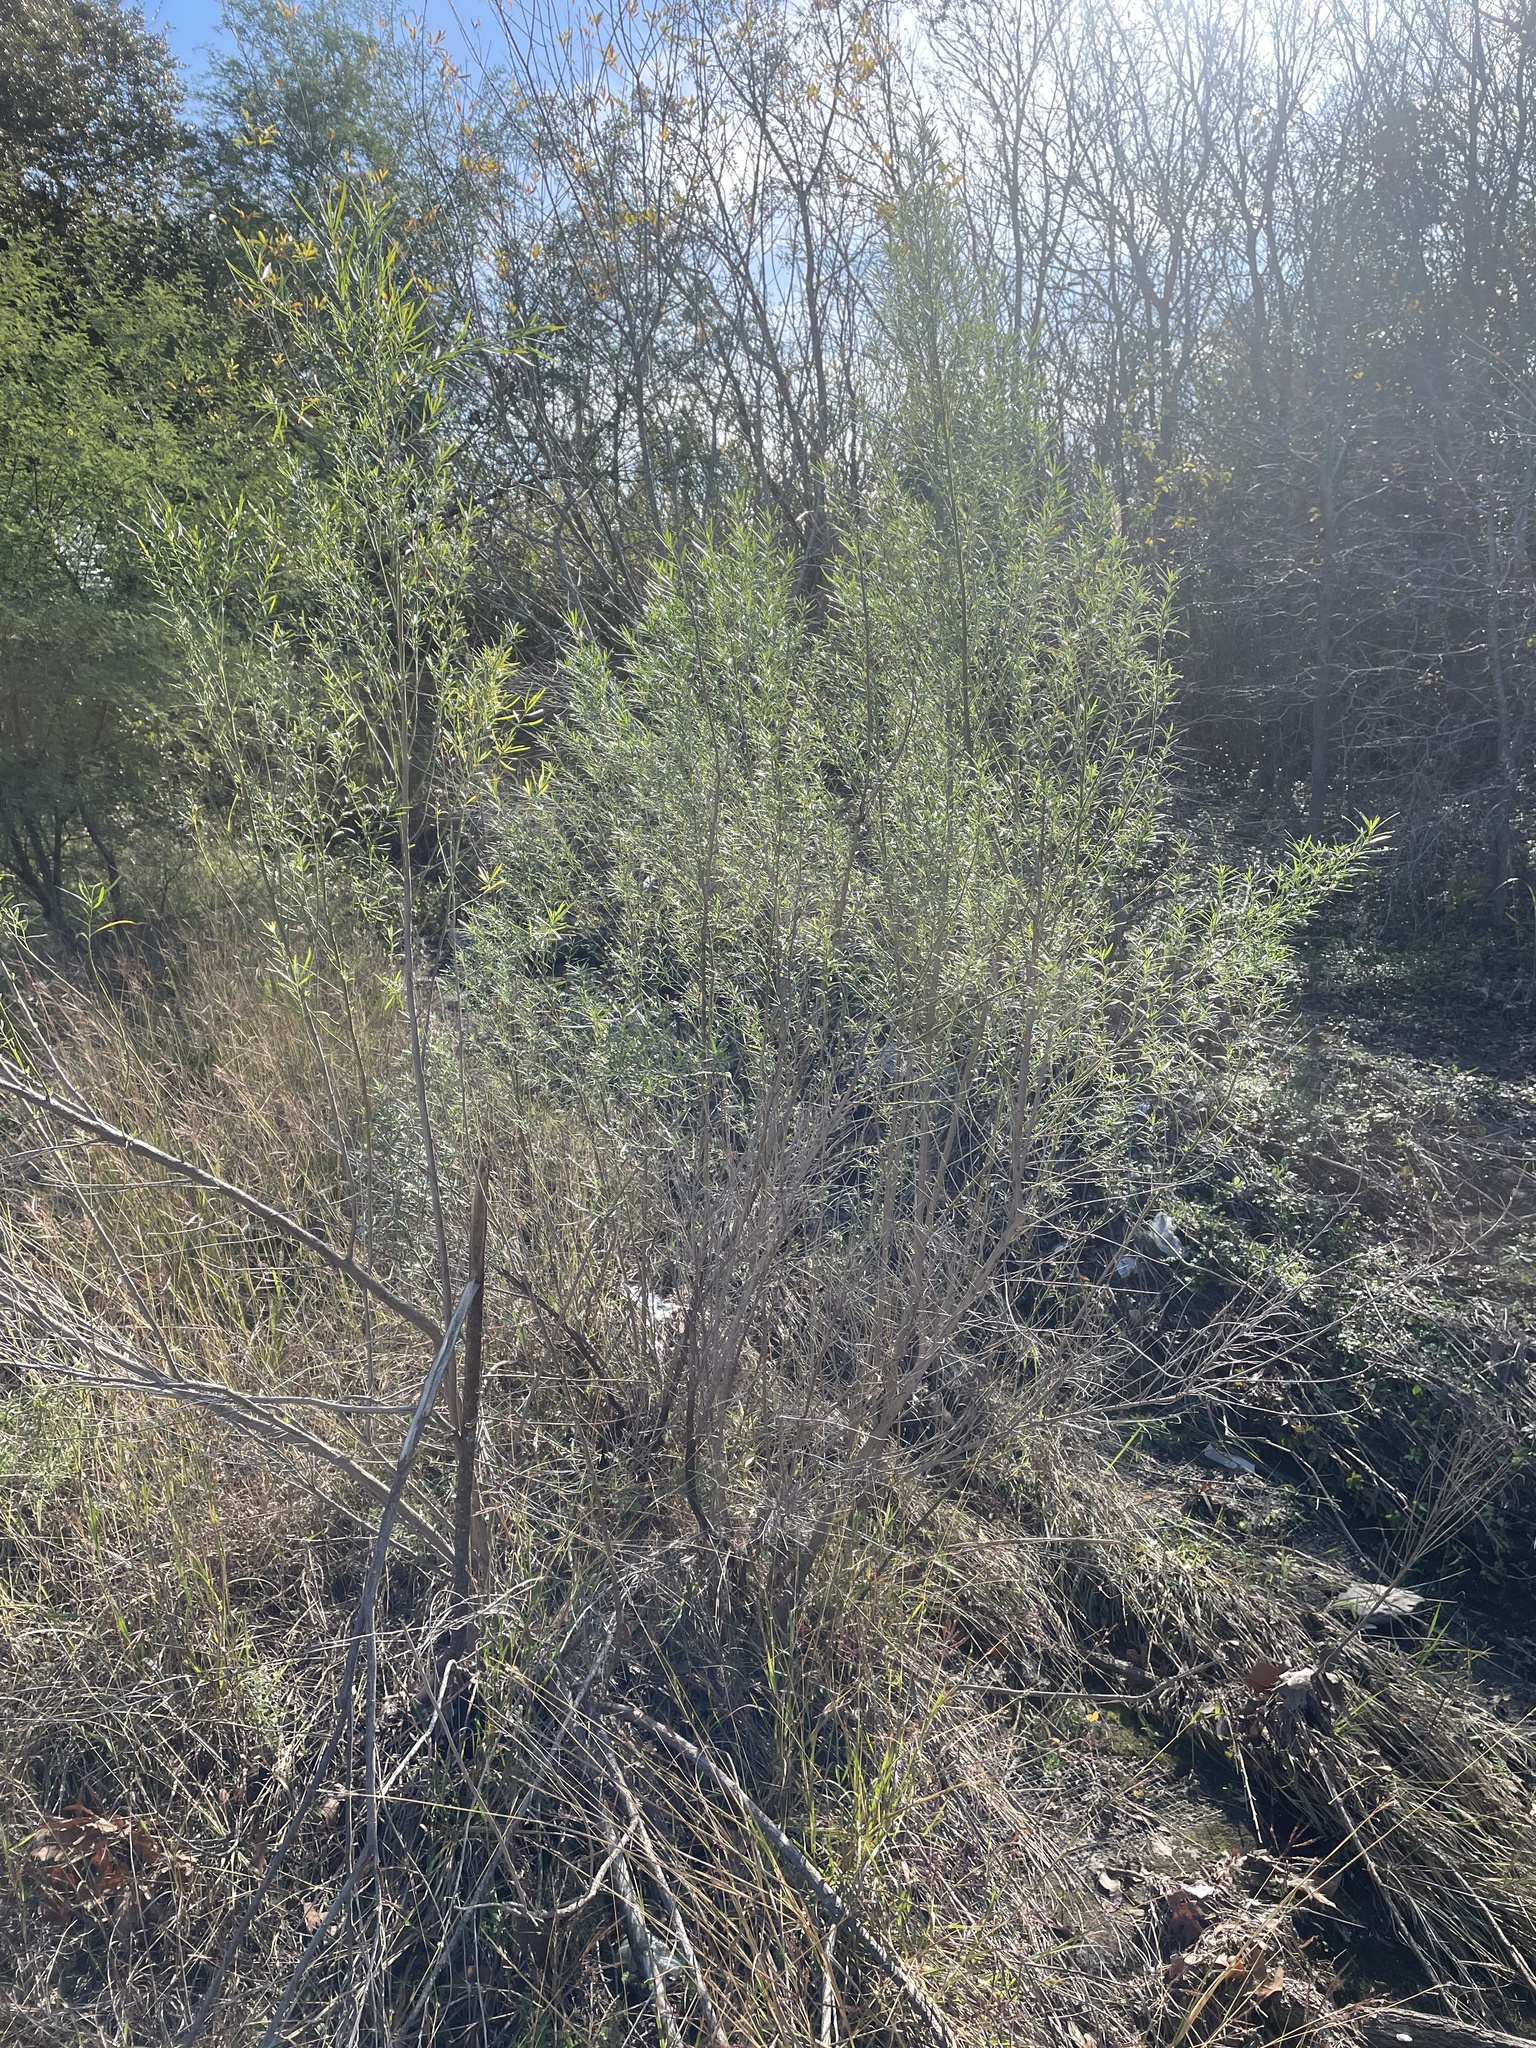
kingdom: Plantae
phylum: Tracheophyta
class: Magnoliopsida
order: Asterales
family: Asteraceae
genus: Baccharis
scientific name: Baccharis neglecta
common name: Roosevelt-weed
